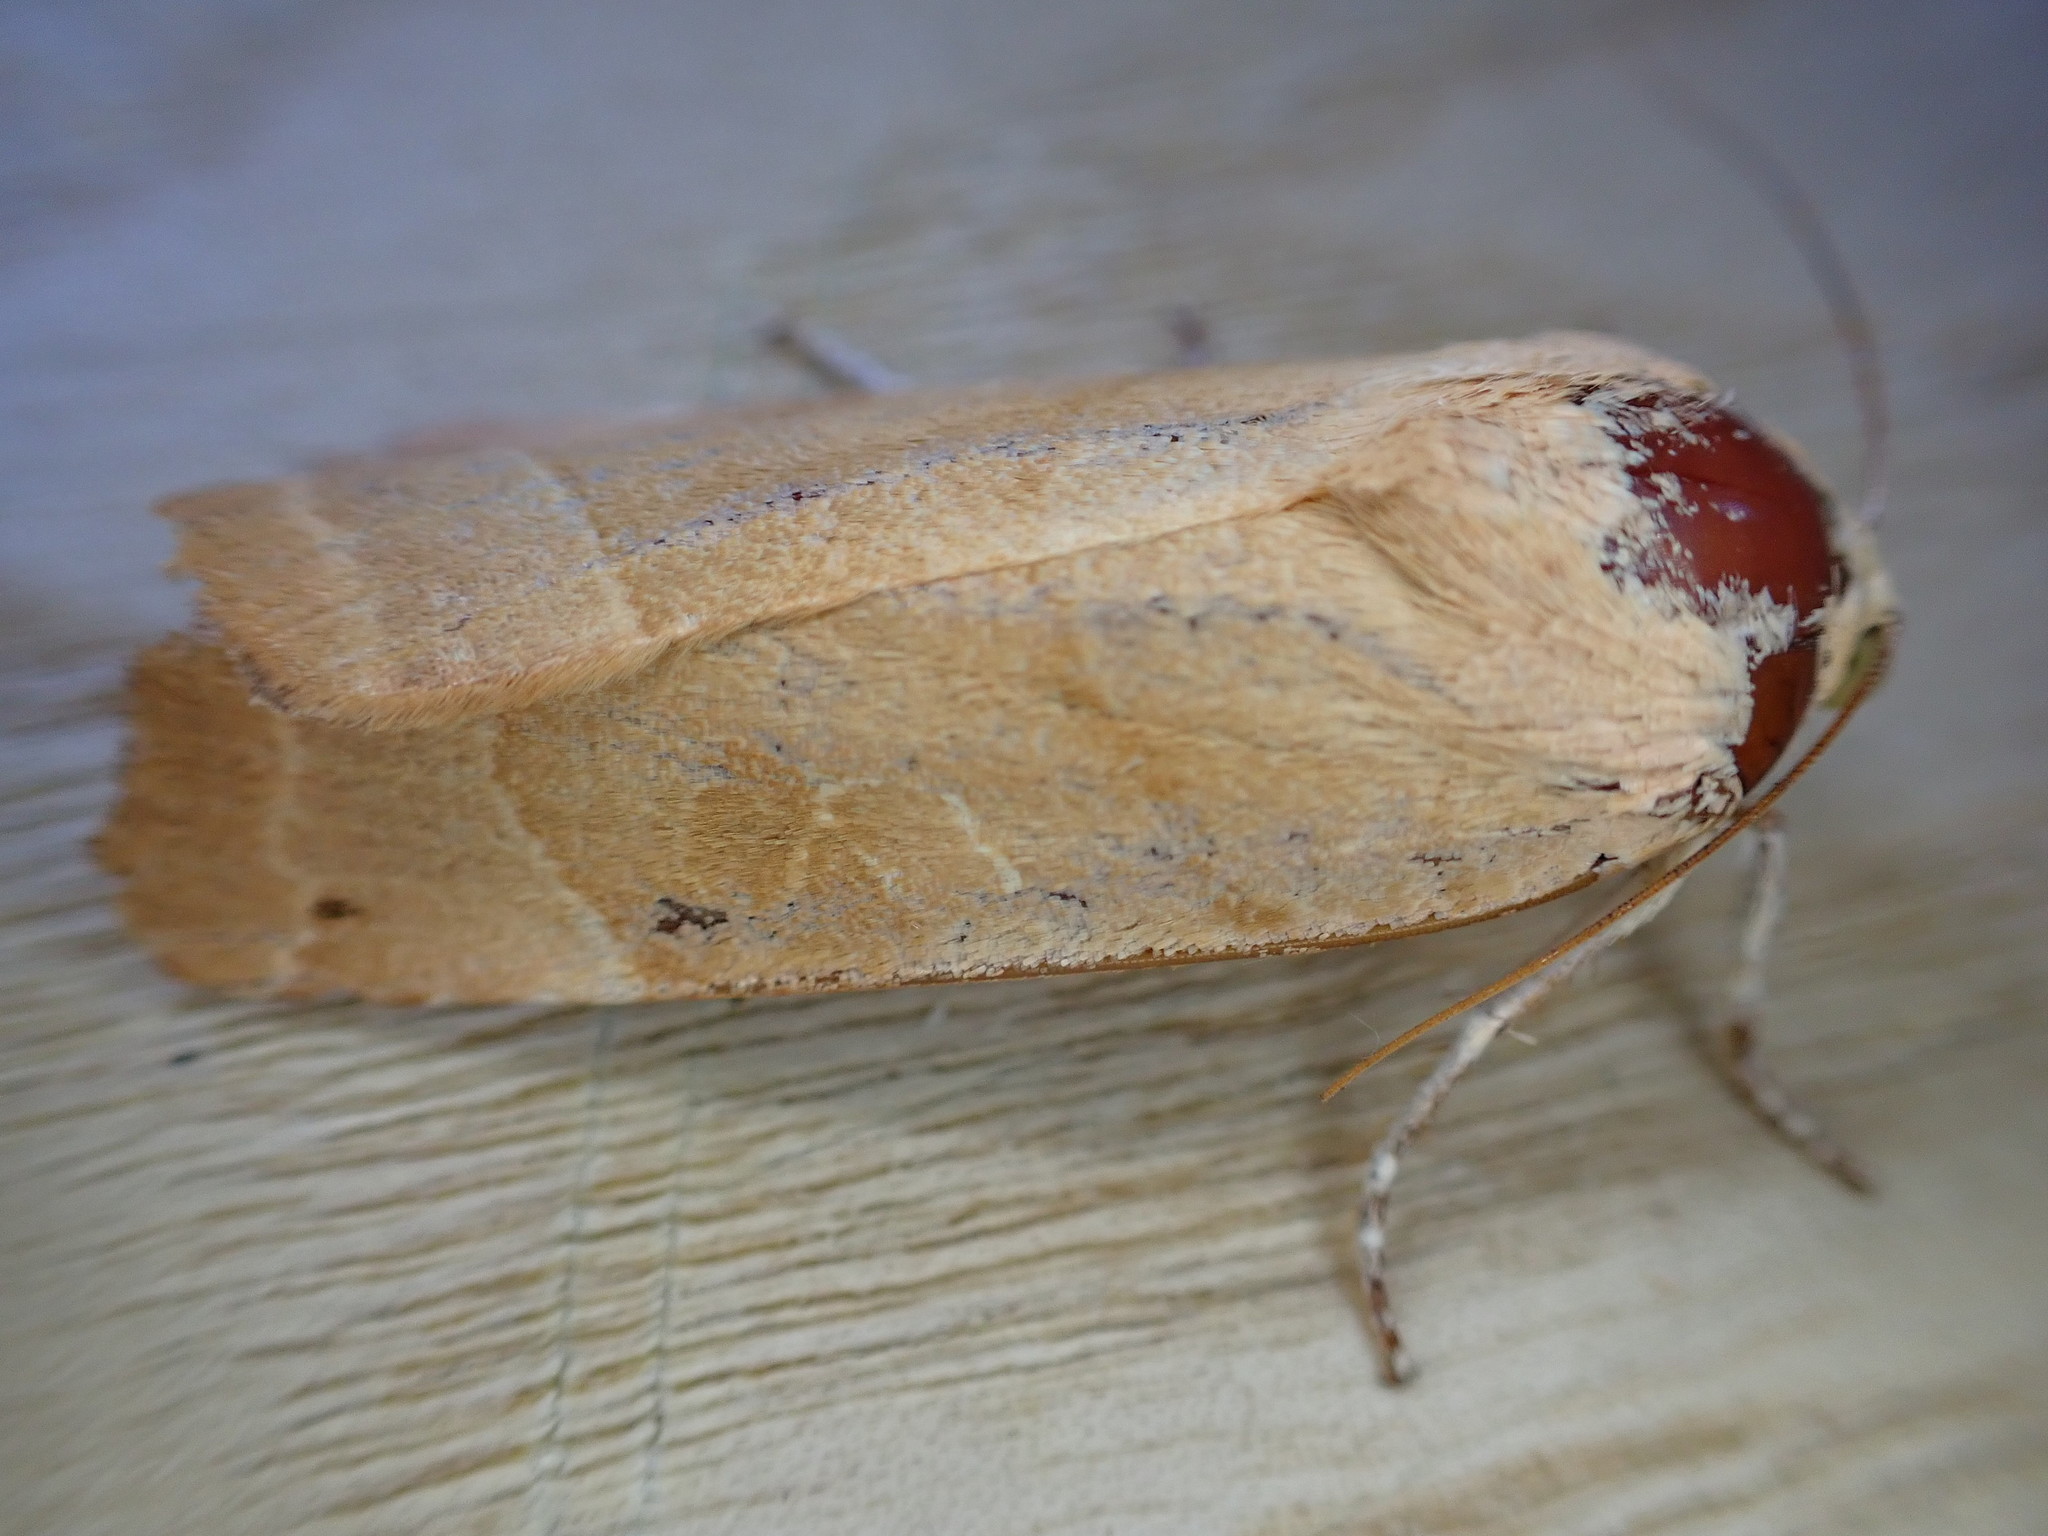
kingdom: Animalia
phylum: Arthropoda
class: Insecta
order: Lepidoptera
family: Noctuidae
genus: Noctua
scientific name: Noctua fimbriata
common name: Broad-bordered yellow underwing
